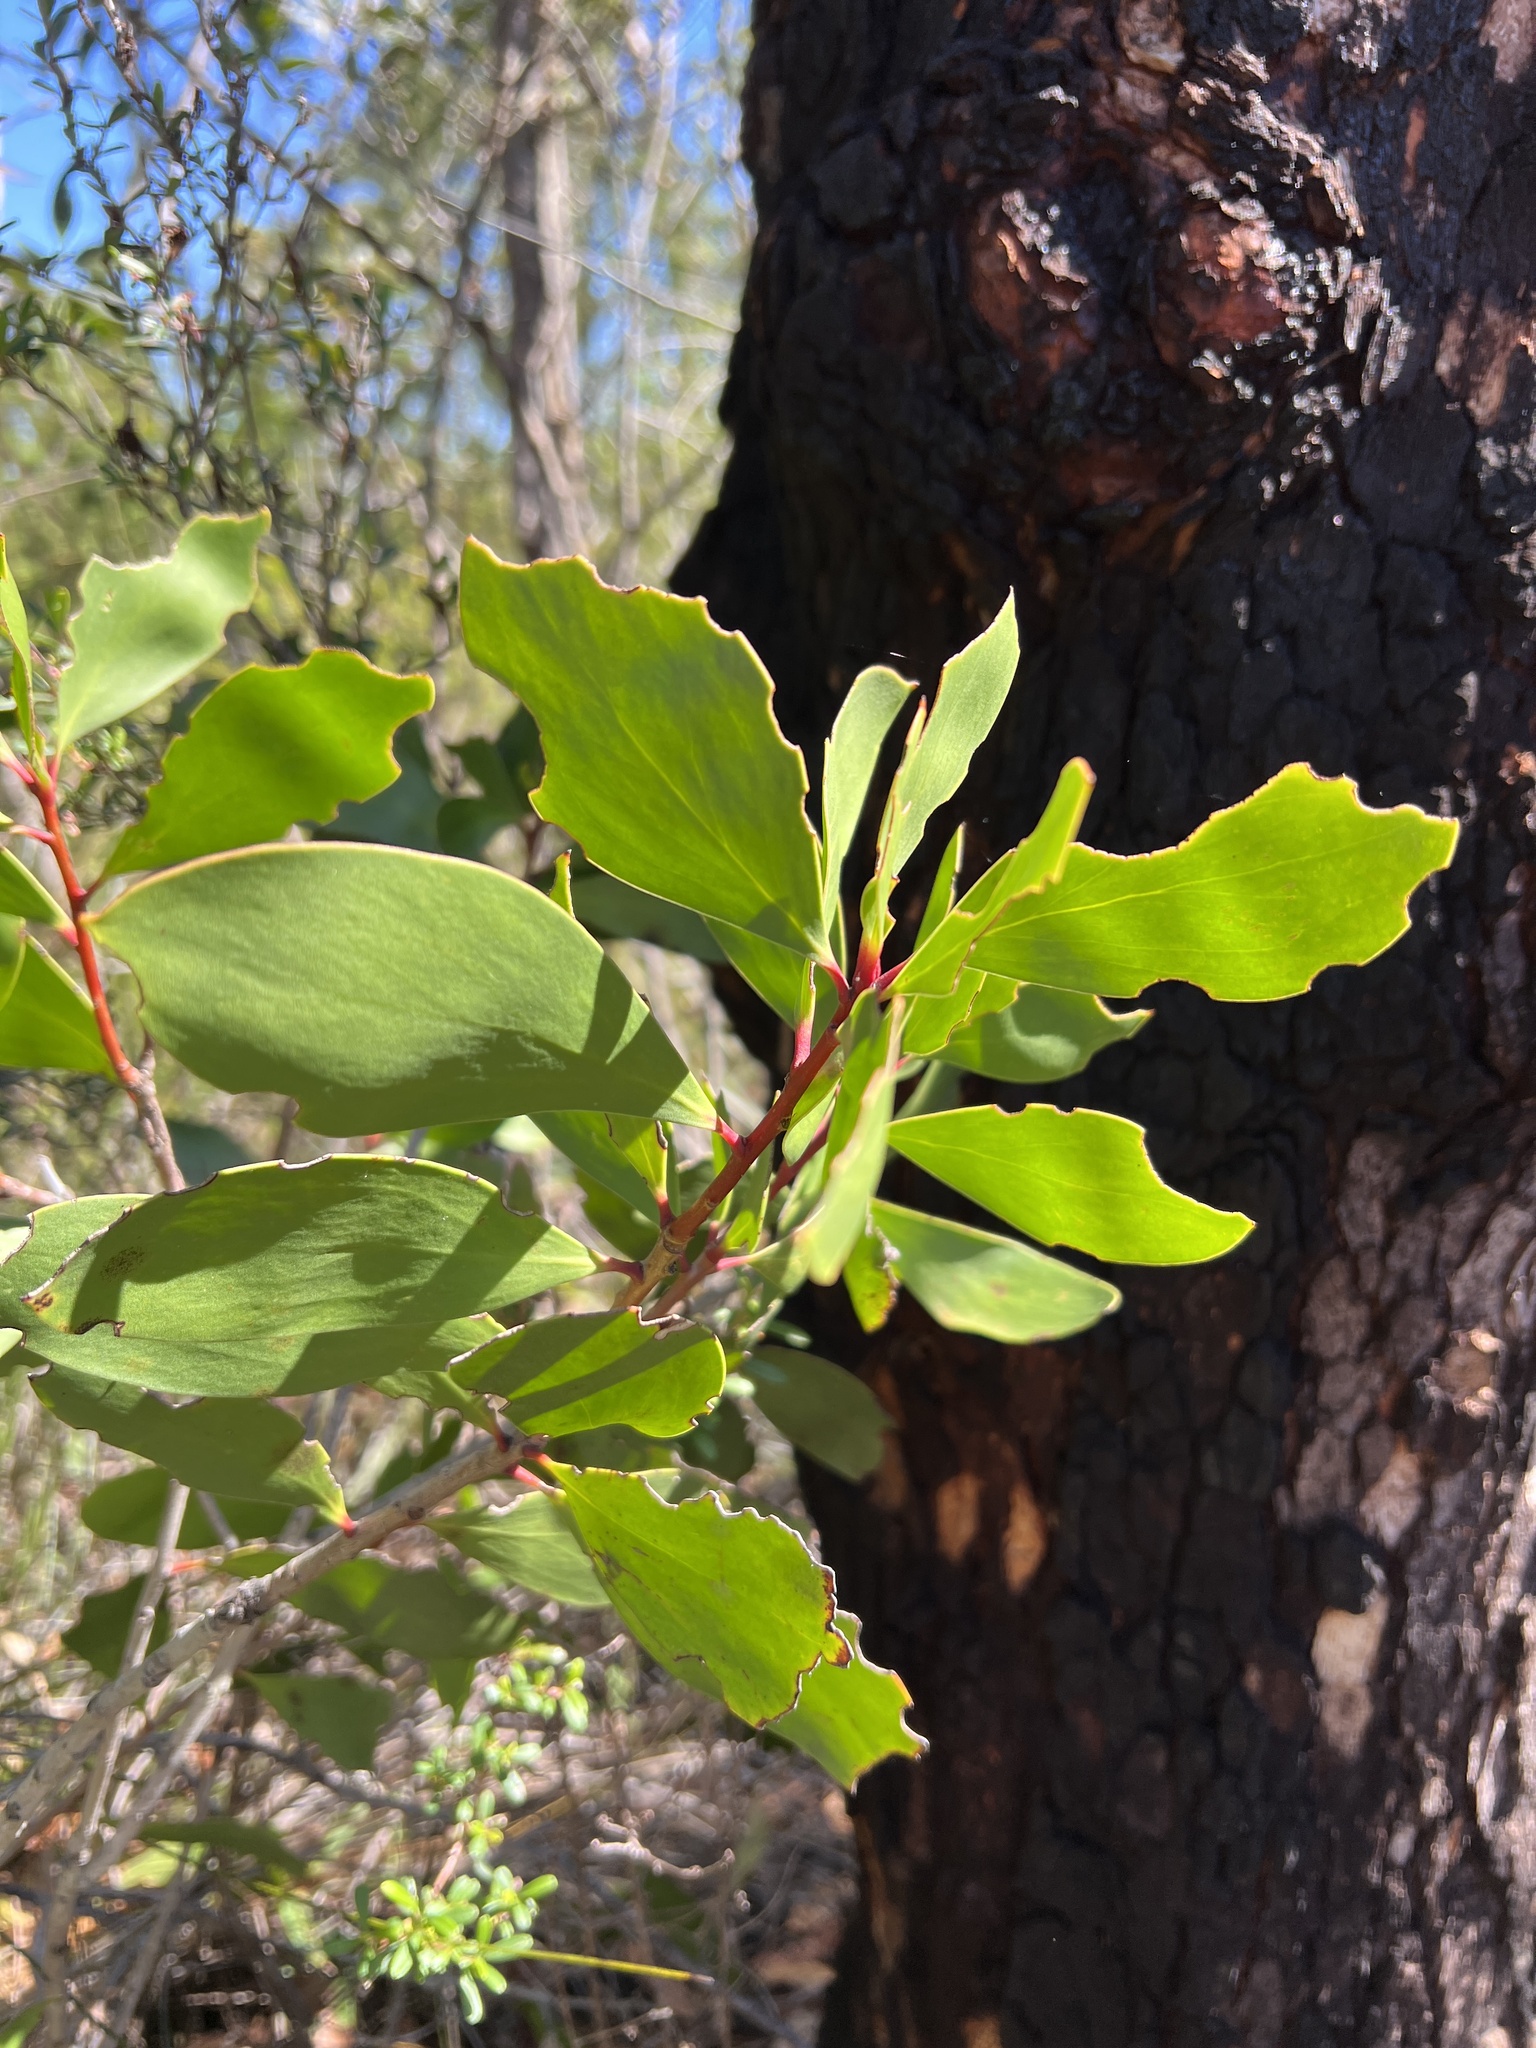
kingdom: Plantae
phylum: Tracheophyta
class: Magnoliopsida
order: Proteales
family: Proteaceae
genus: Persoonia
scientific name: Persoonia levis
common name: Smooth geebung
